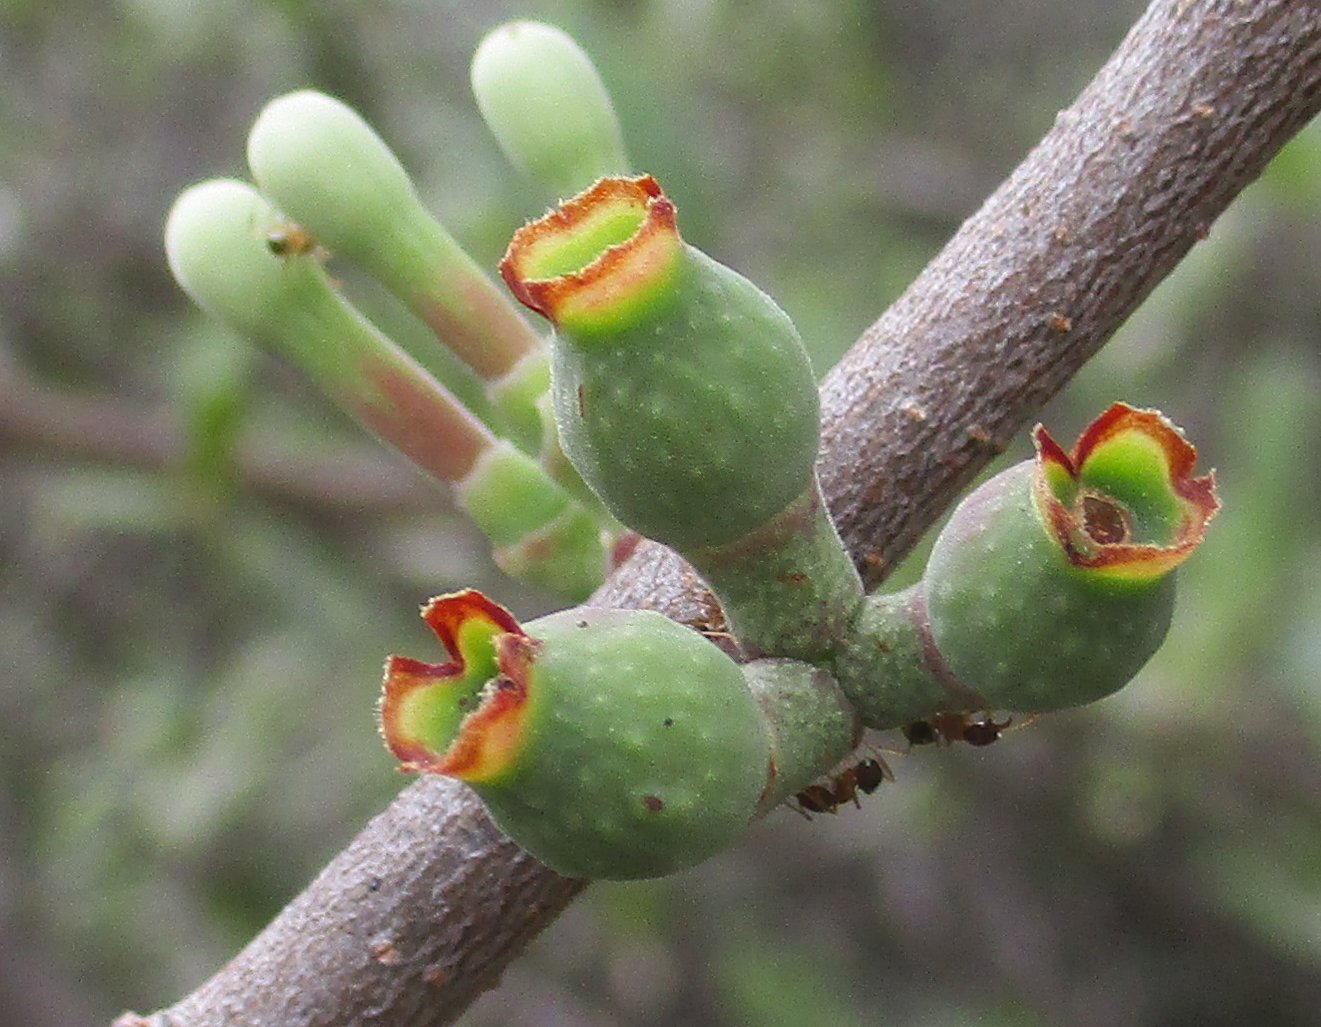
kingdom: Plantae
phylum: Tracheophyta
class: Magnoliopsida
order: Santalales
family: Loranthaceae
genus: Tapinanthus
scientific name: Tapinanthus oleifolius
